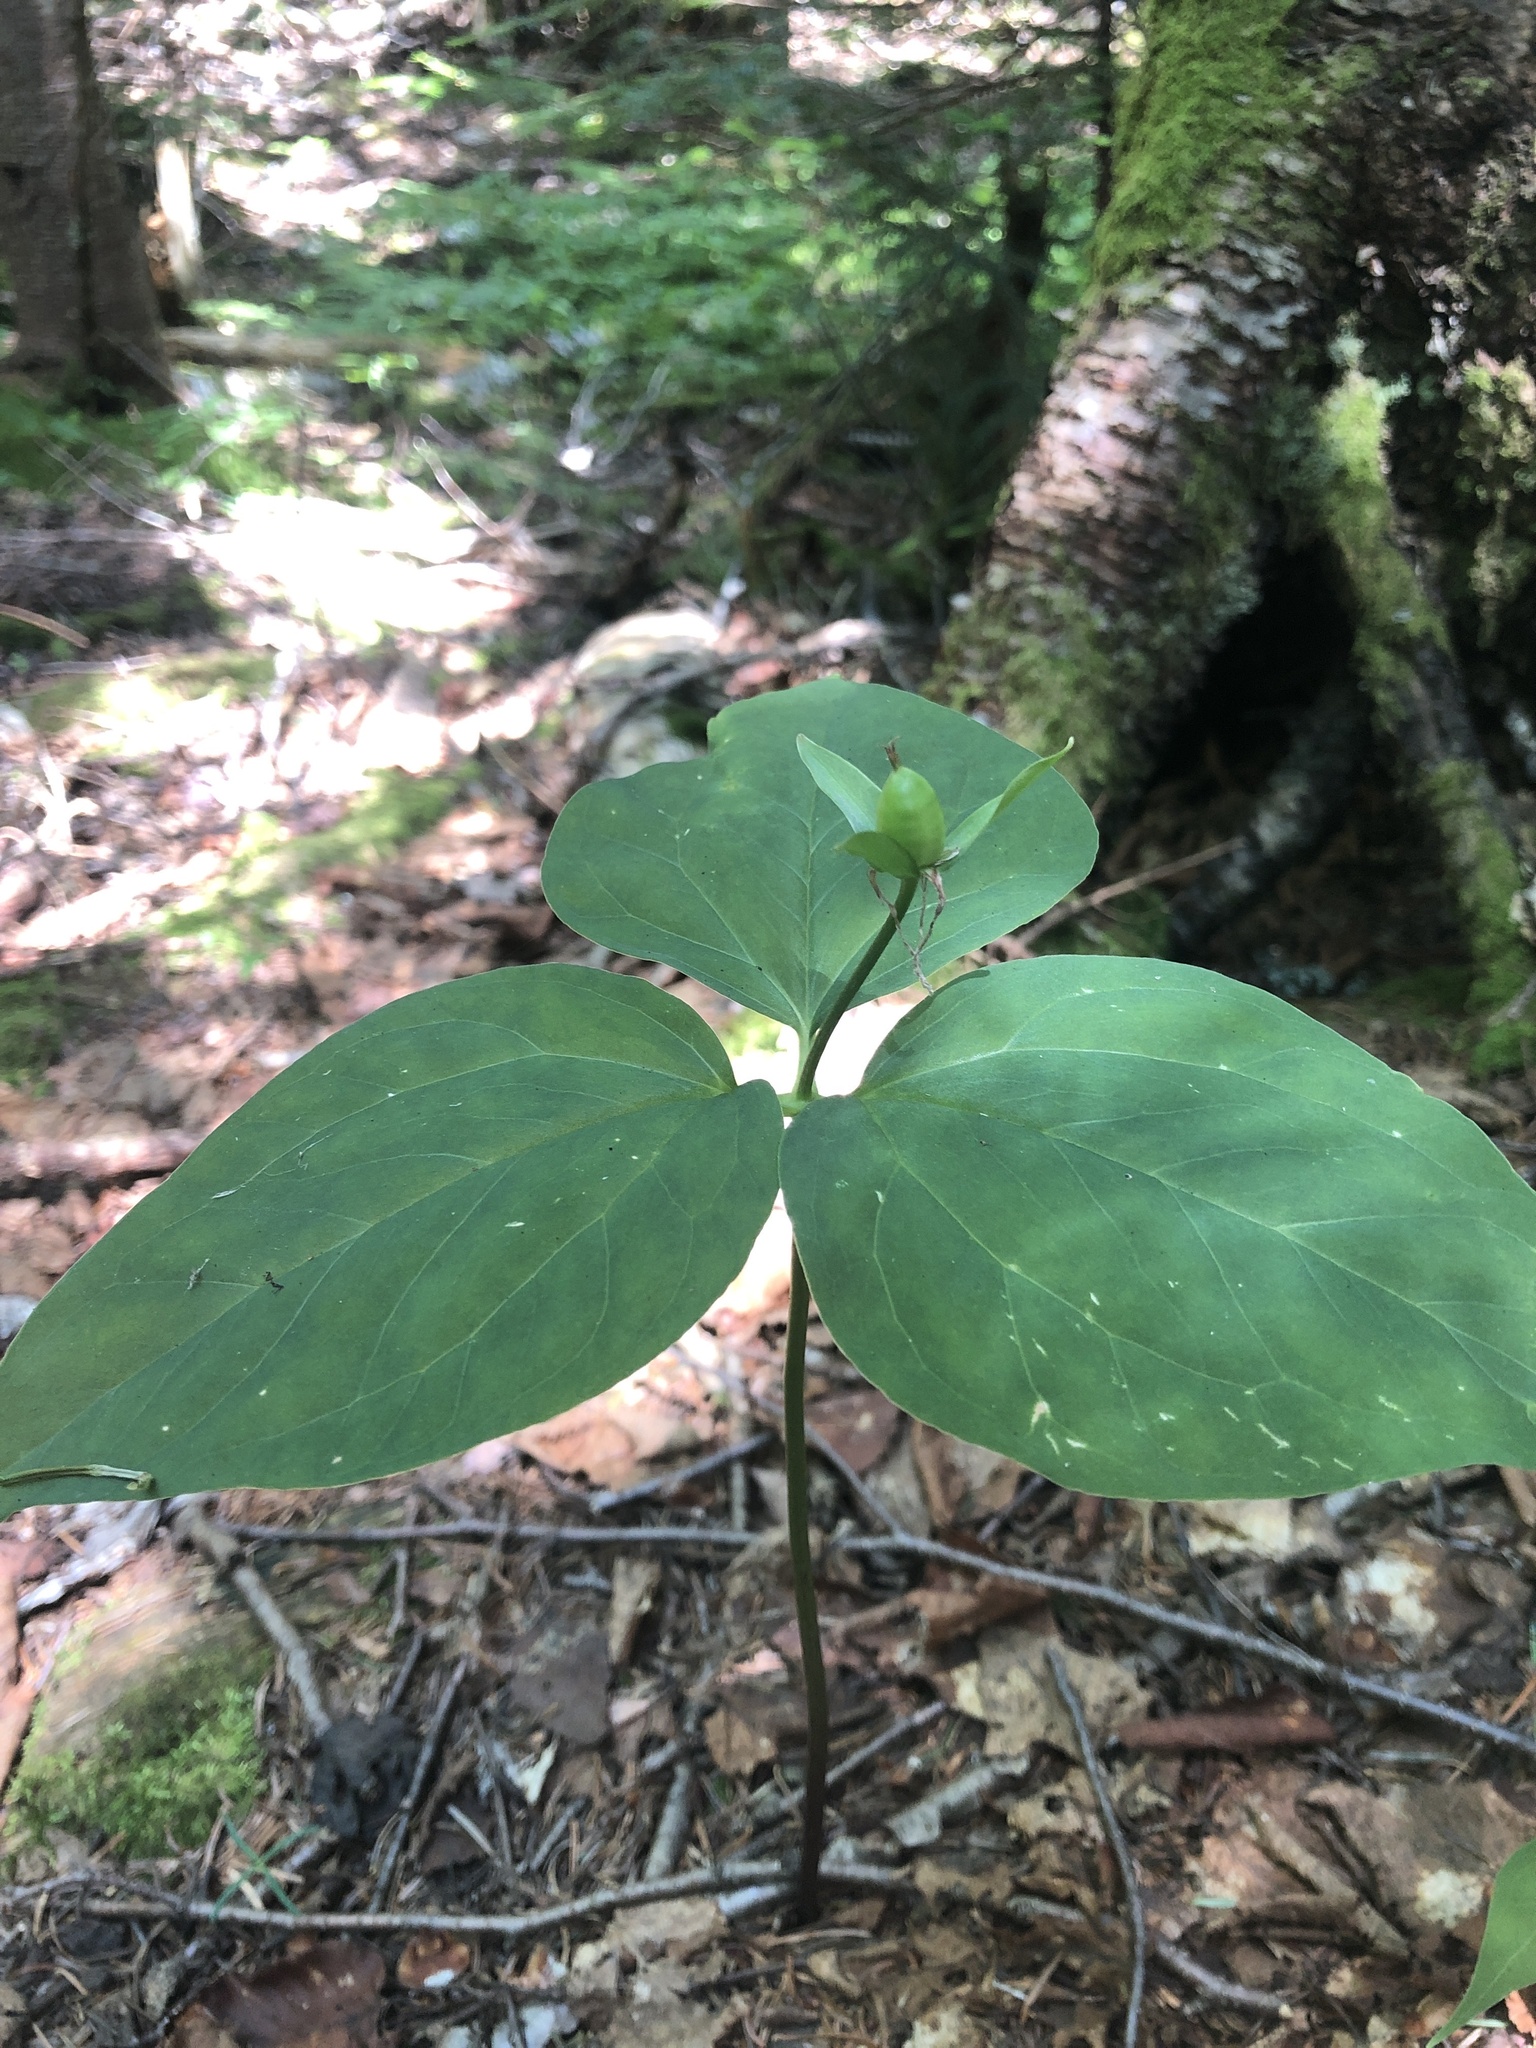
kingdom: Plantae
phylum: Tracheophyta
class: Liliopsida
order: Liliales
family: Melanthiaceae
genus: Trillium
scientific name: Trillium undulatum
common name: Paint trillium
